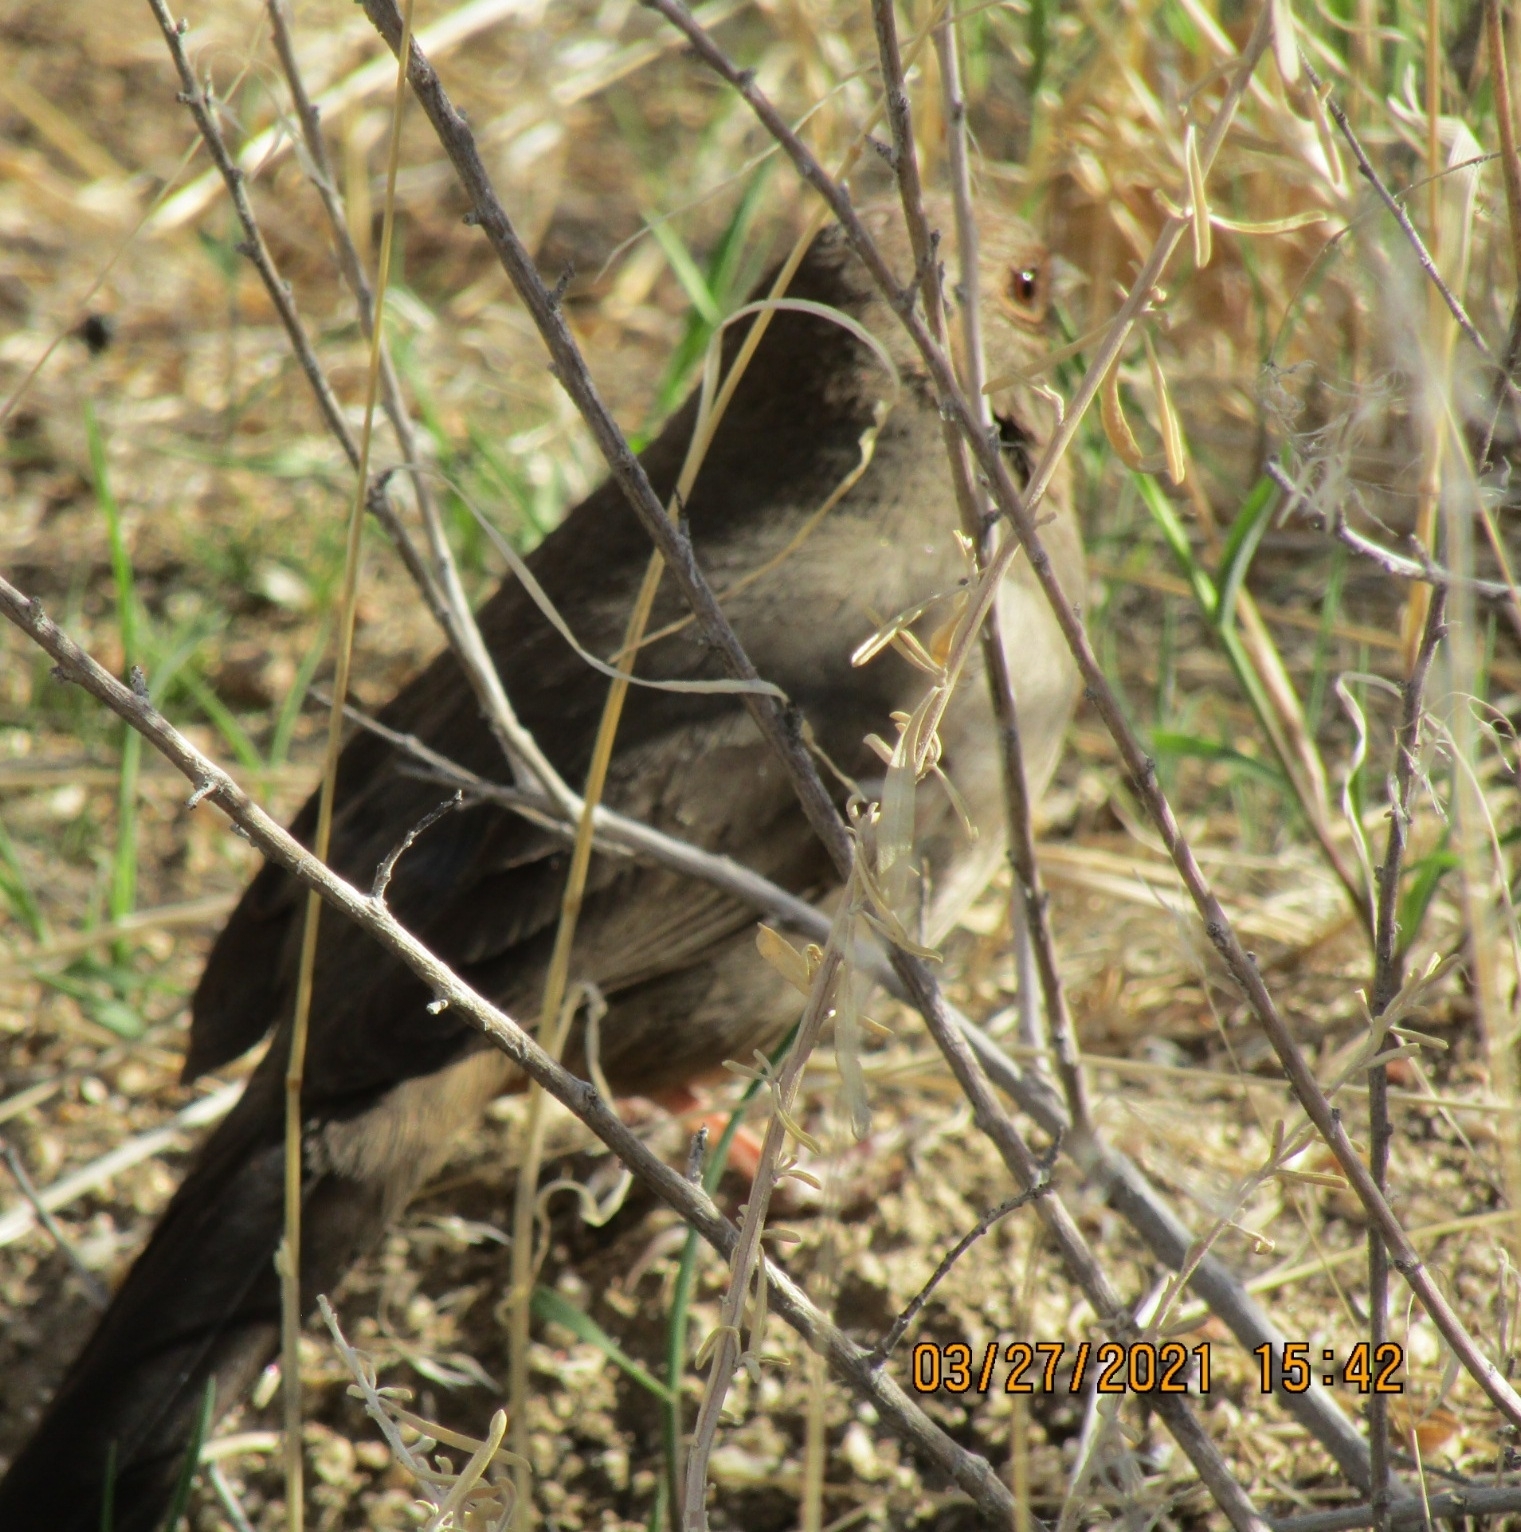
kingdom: Animalia
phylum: Chordata
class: Aves
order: Passeriformes
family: Passerellidae
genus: Melozone
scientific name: Melozone crissalis
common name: California towhee
